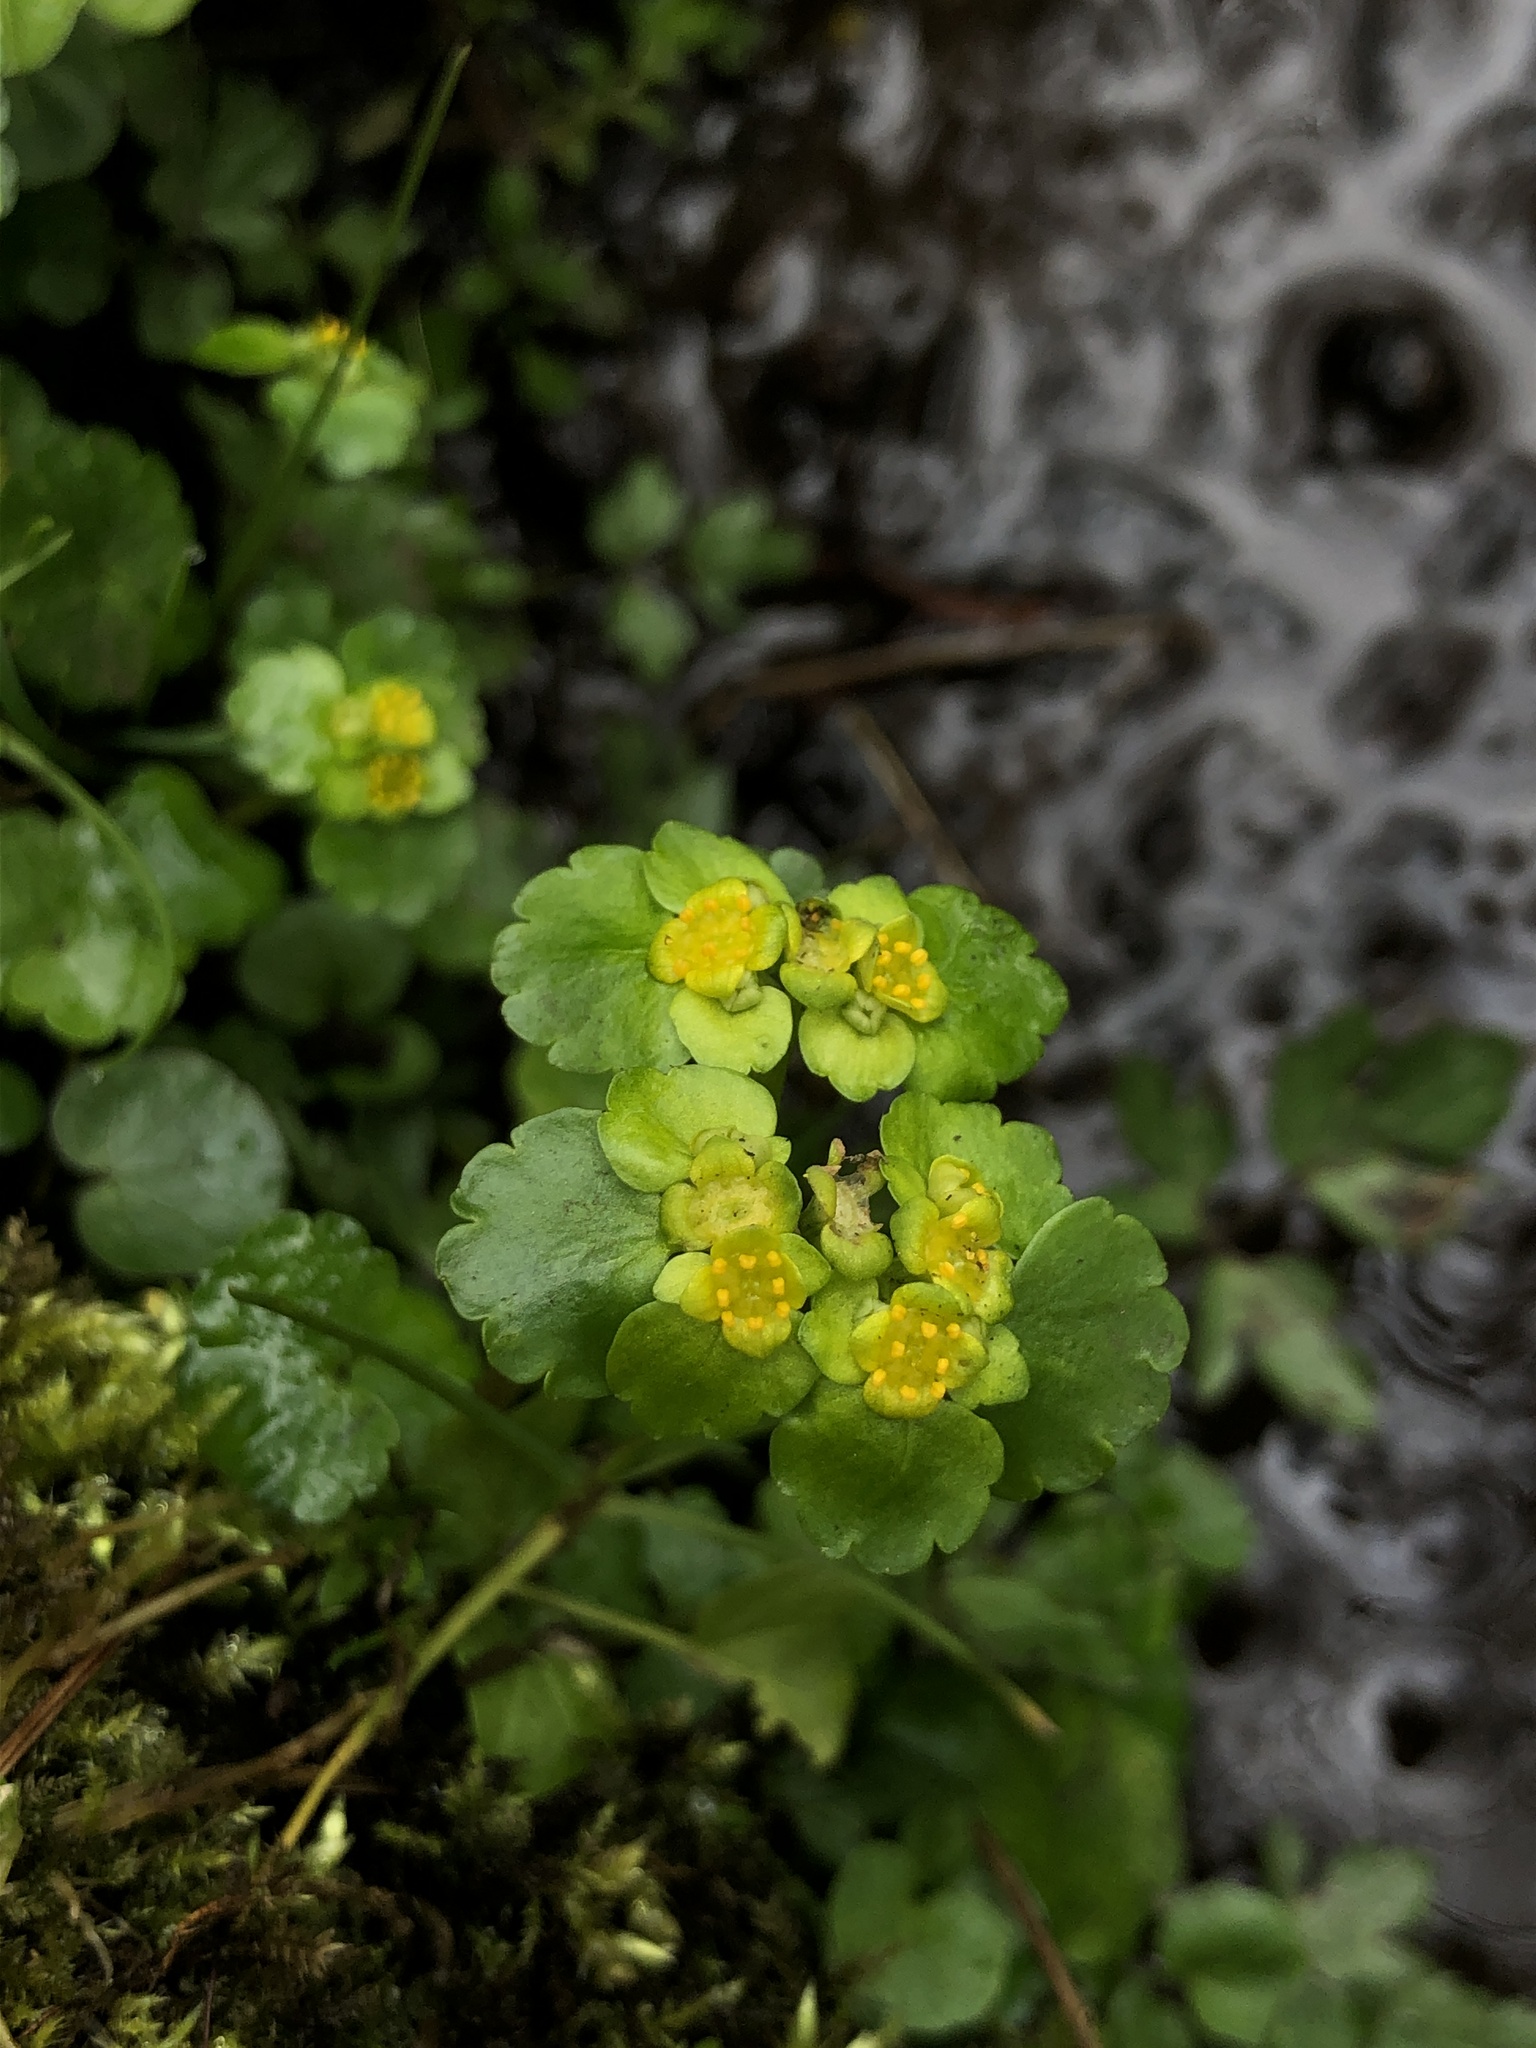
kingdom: Plantae
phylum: Tracheophyta
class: Magnoliopsida
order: Saxifragales
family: Saxifragaceae
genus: Chrysosplenium
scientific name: Chrysosplenium alternifolium
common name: Alternate-leaved golden-saxifrage
